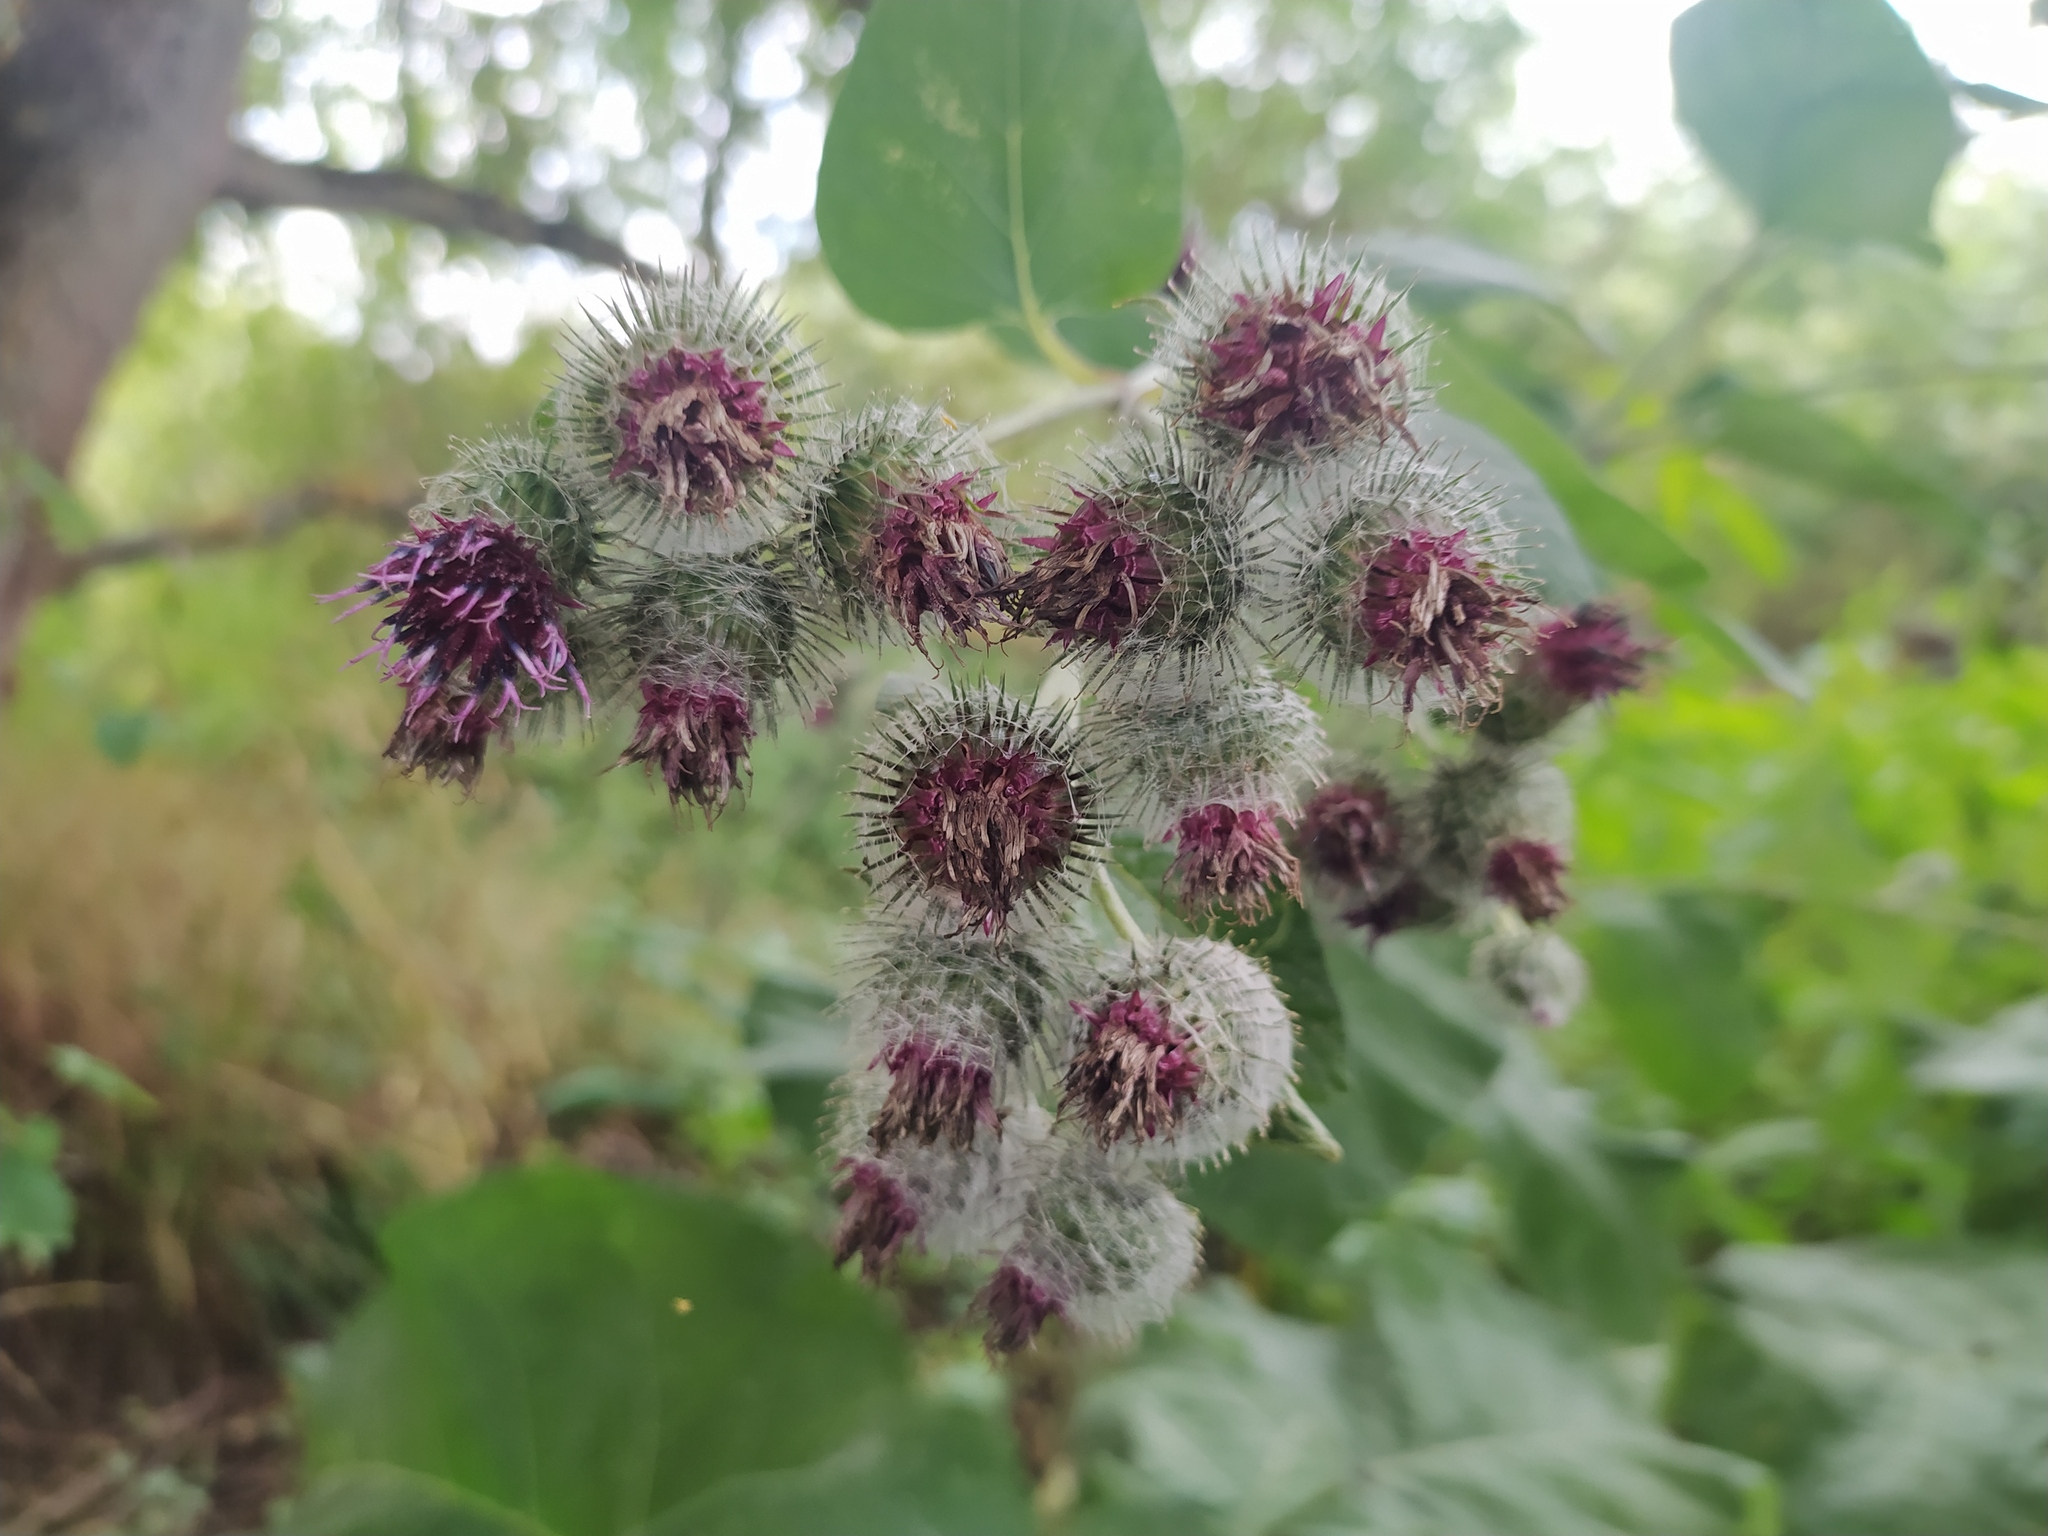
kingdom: Plantae
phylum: Tracheophyta
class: Magnoliopsida
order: Asterales
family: Asteraceae
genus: Arctium
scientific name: Arctium tomentosum
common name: Woolly burdock
